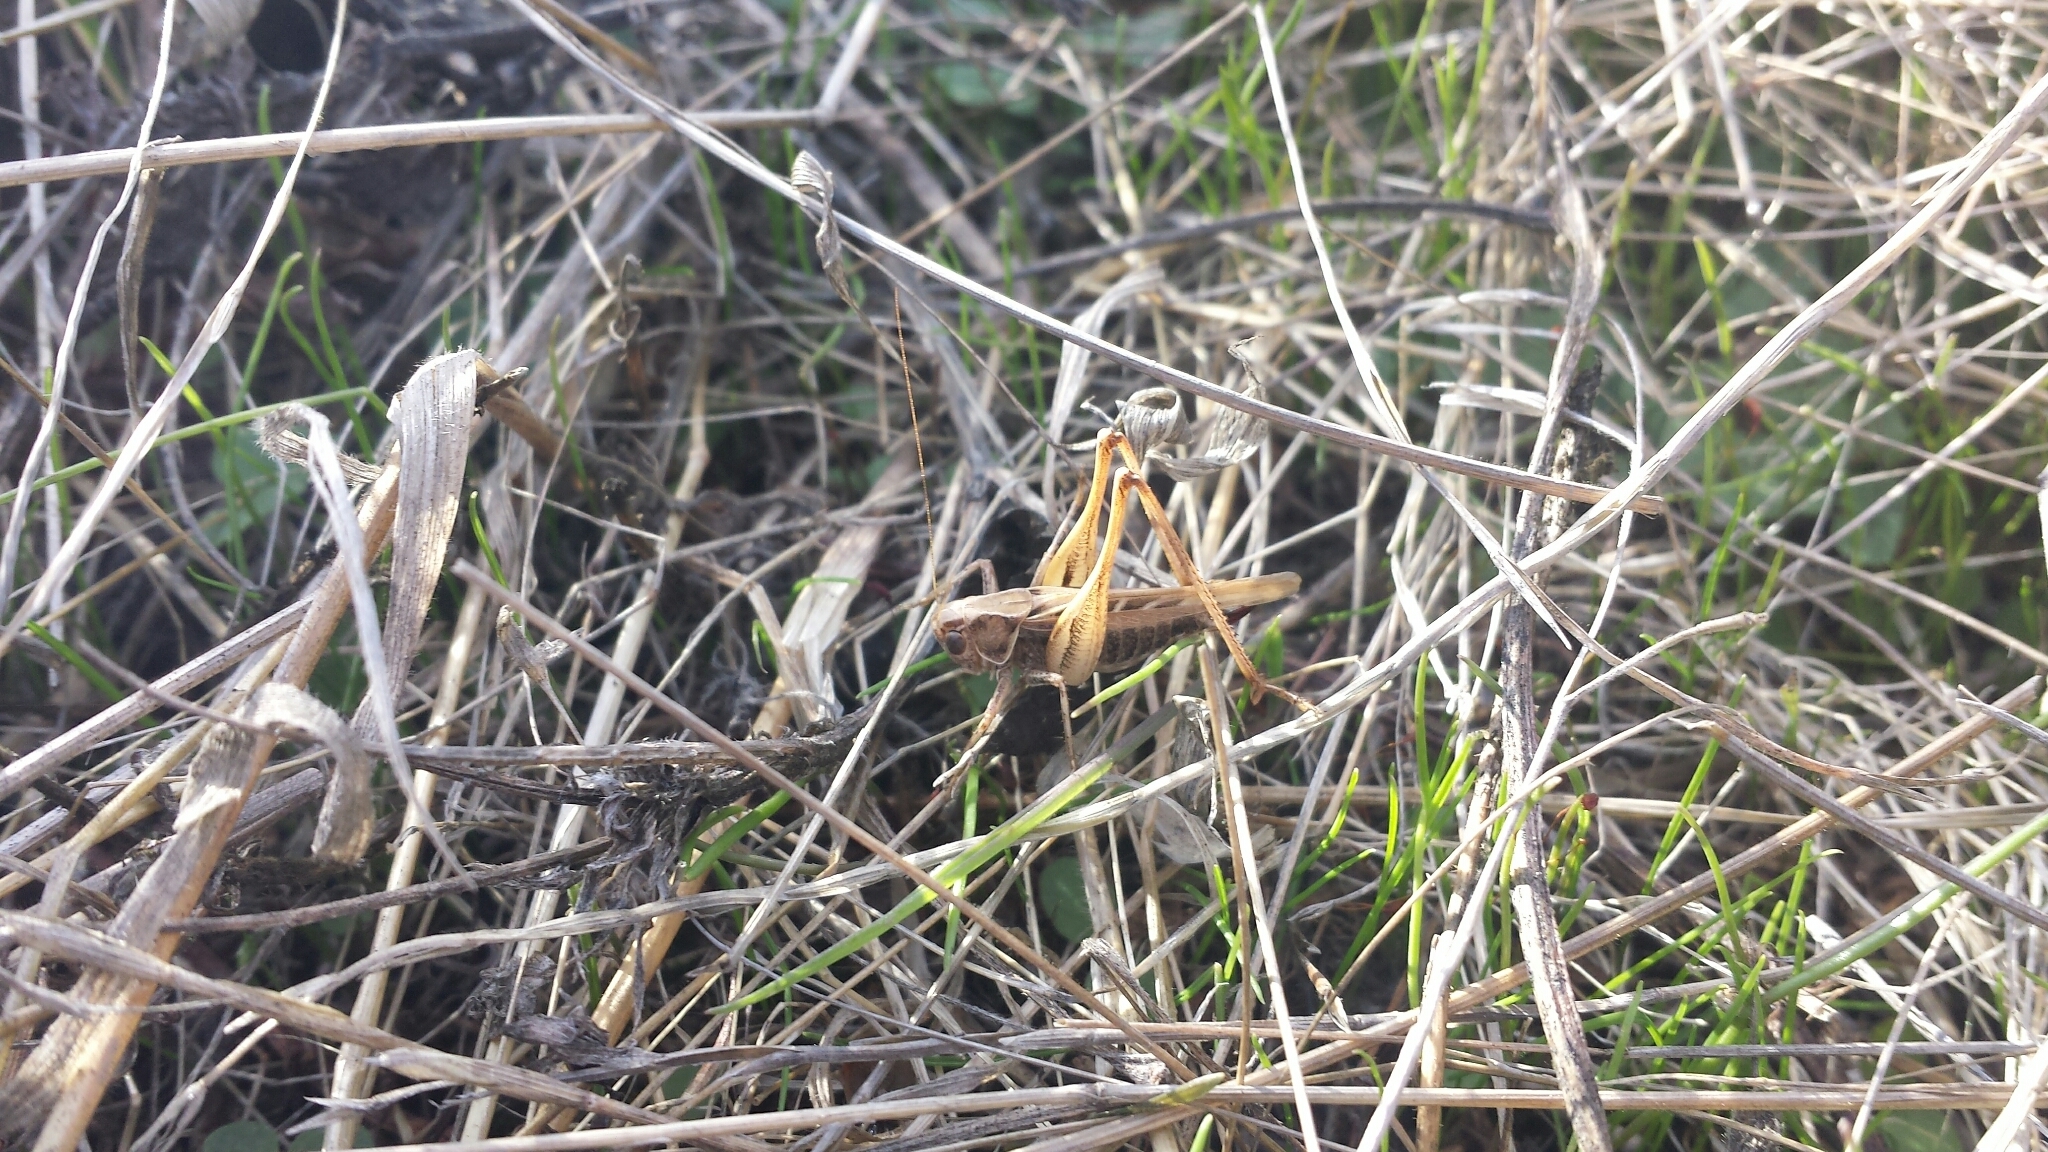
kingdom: Animalia
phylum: Arthropoda
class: Insecta
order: Orthoptera
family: Tettigoniidae
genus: Tessellana
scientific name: Tessellana tessellata
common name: Grasshopper
